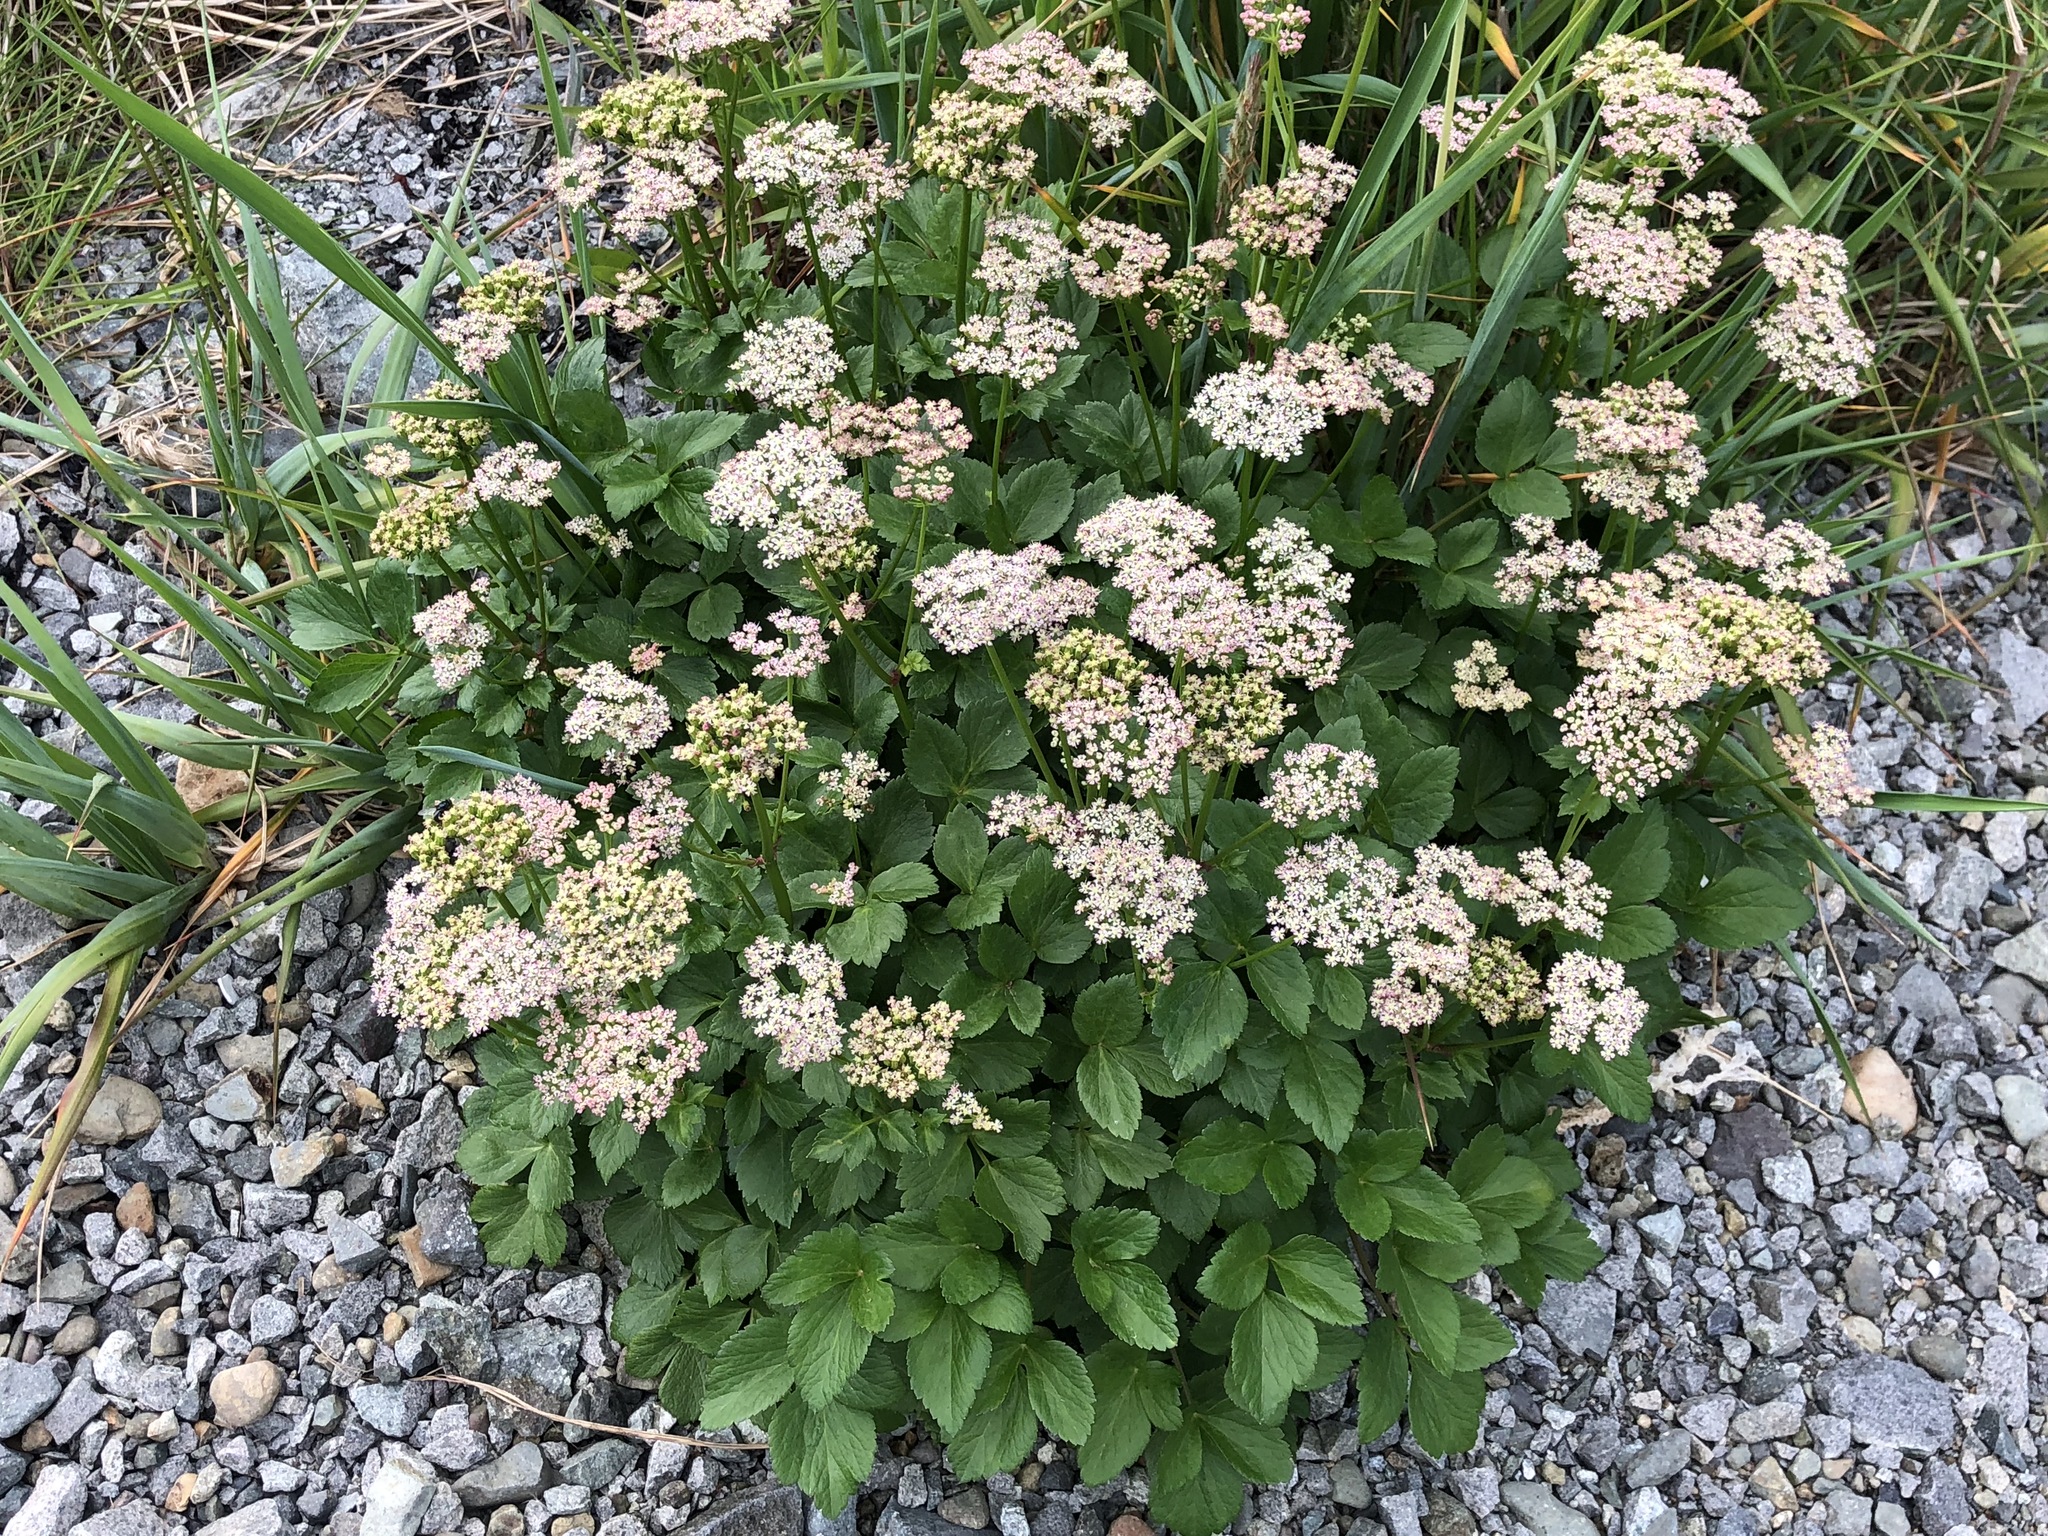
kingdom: Plantae
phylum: Tracheophyta
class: Magnoliopsida
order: Apiales
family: Apiaceae
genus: Ligusticum
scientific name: Ligusticum scothicum
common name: Beach lovage
